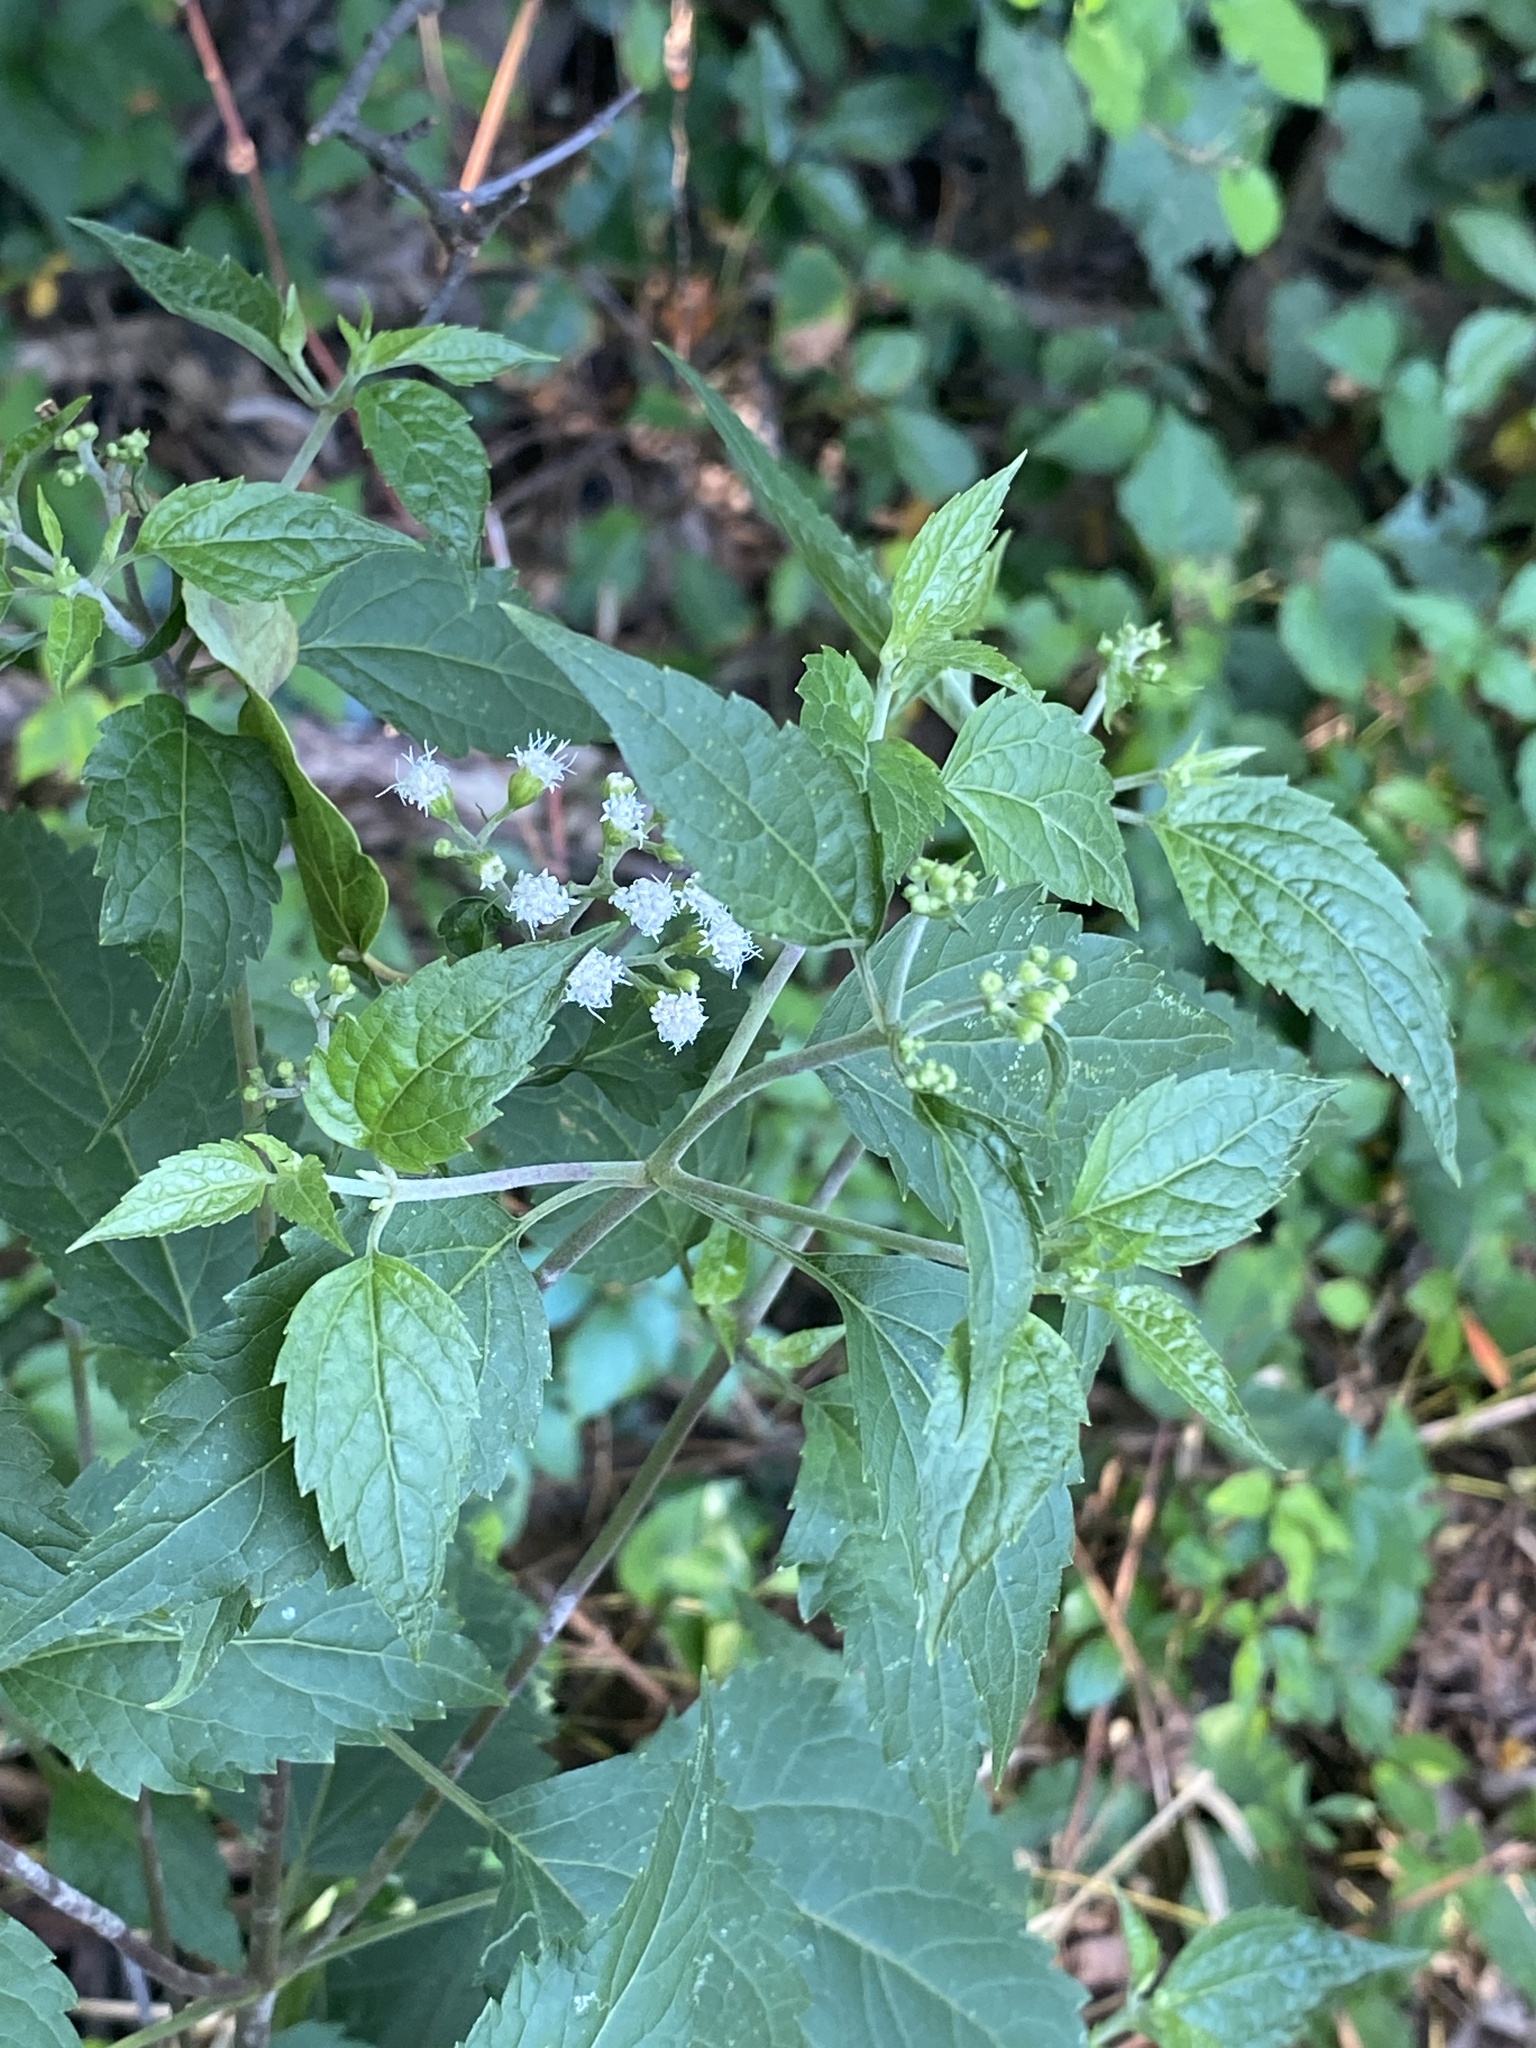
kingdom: Plantae
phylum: Tracheophyta
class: Magnoliopsida
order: Asterales
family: Asteraceae
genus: Ageratina
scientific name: Ageratina altissima
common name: White snakeroot
